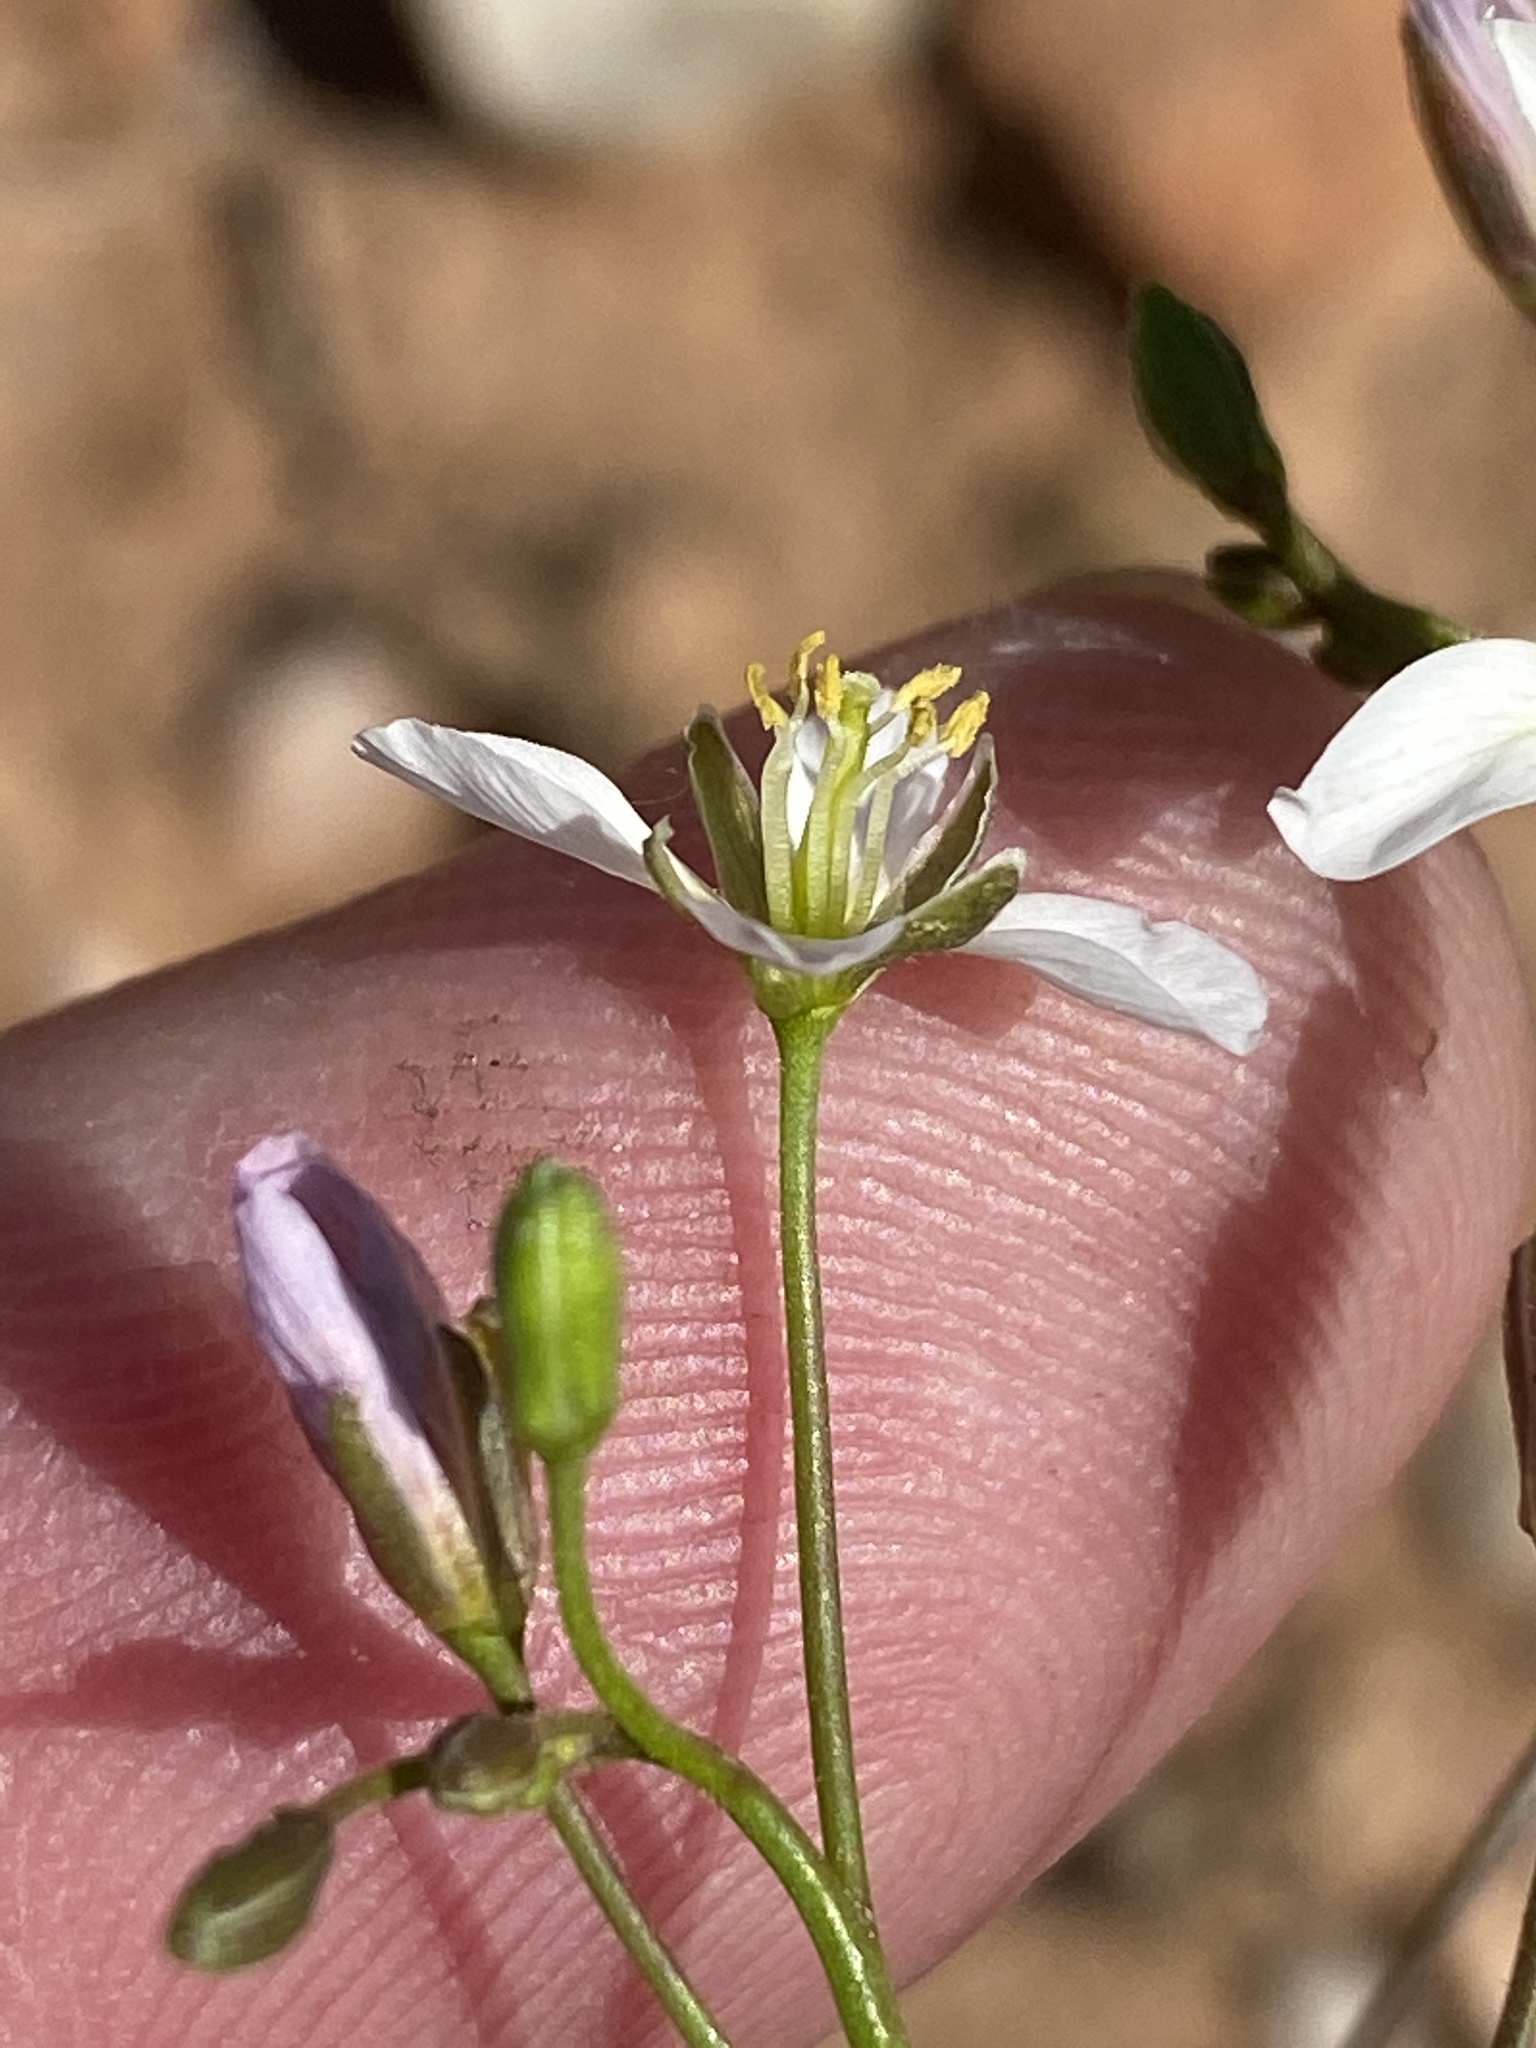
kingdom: Plantae
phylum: Tracheophyta
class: Magnoliopsida
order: Brassicales
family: Brassicaceae
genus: Heliophila
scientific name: Heliophila crithmifolia
